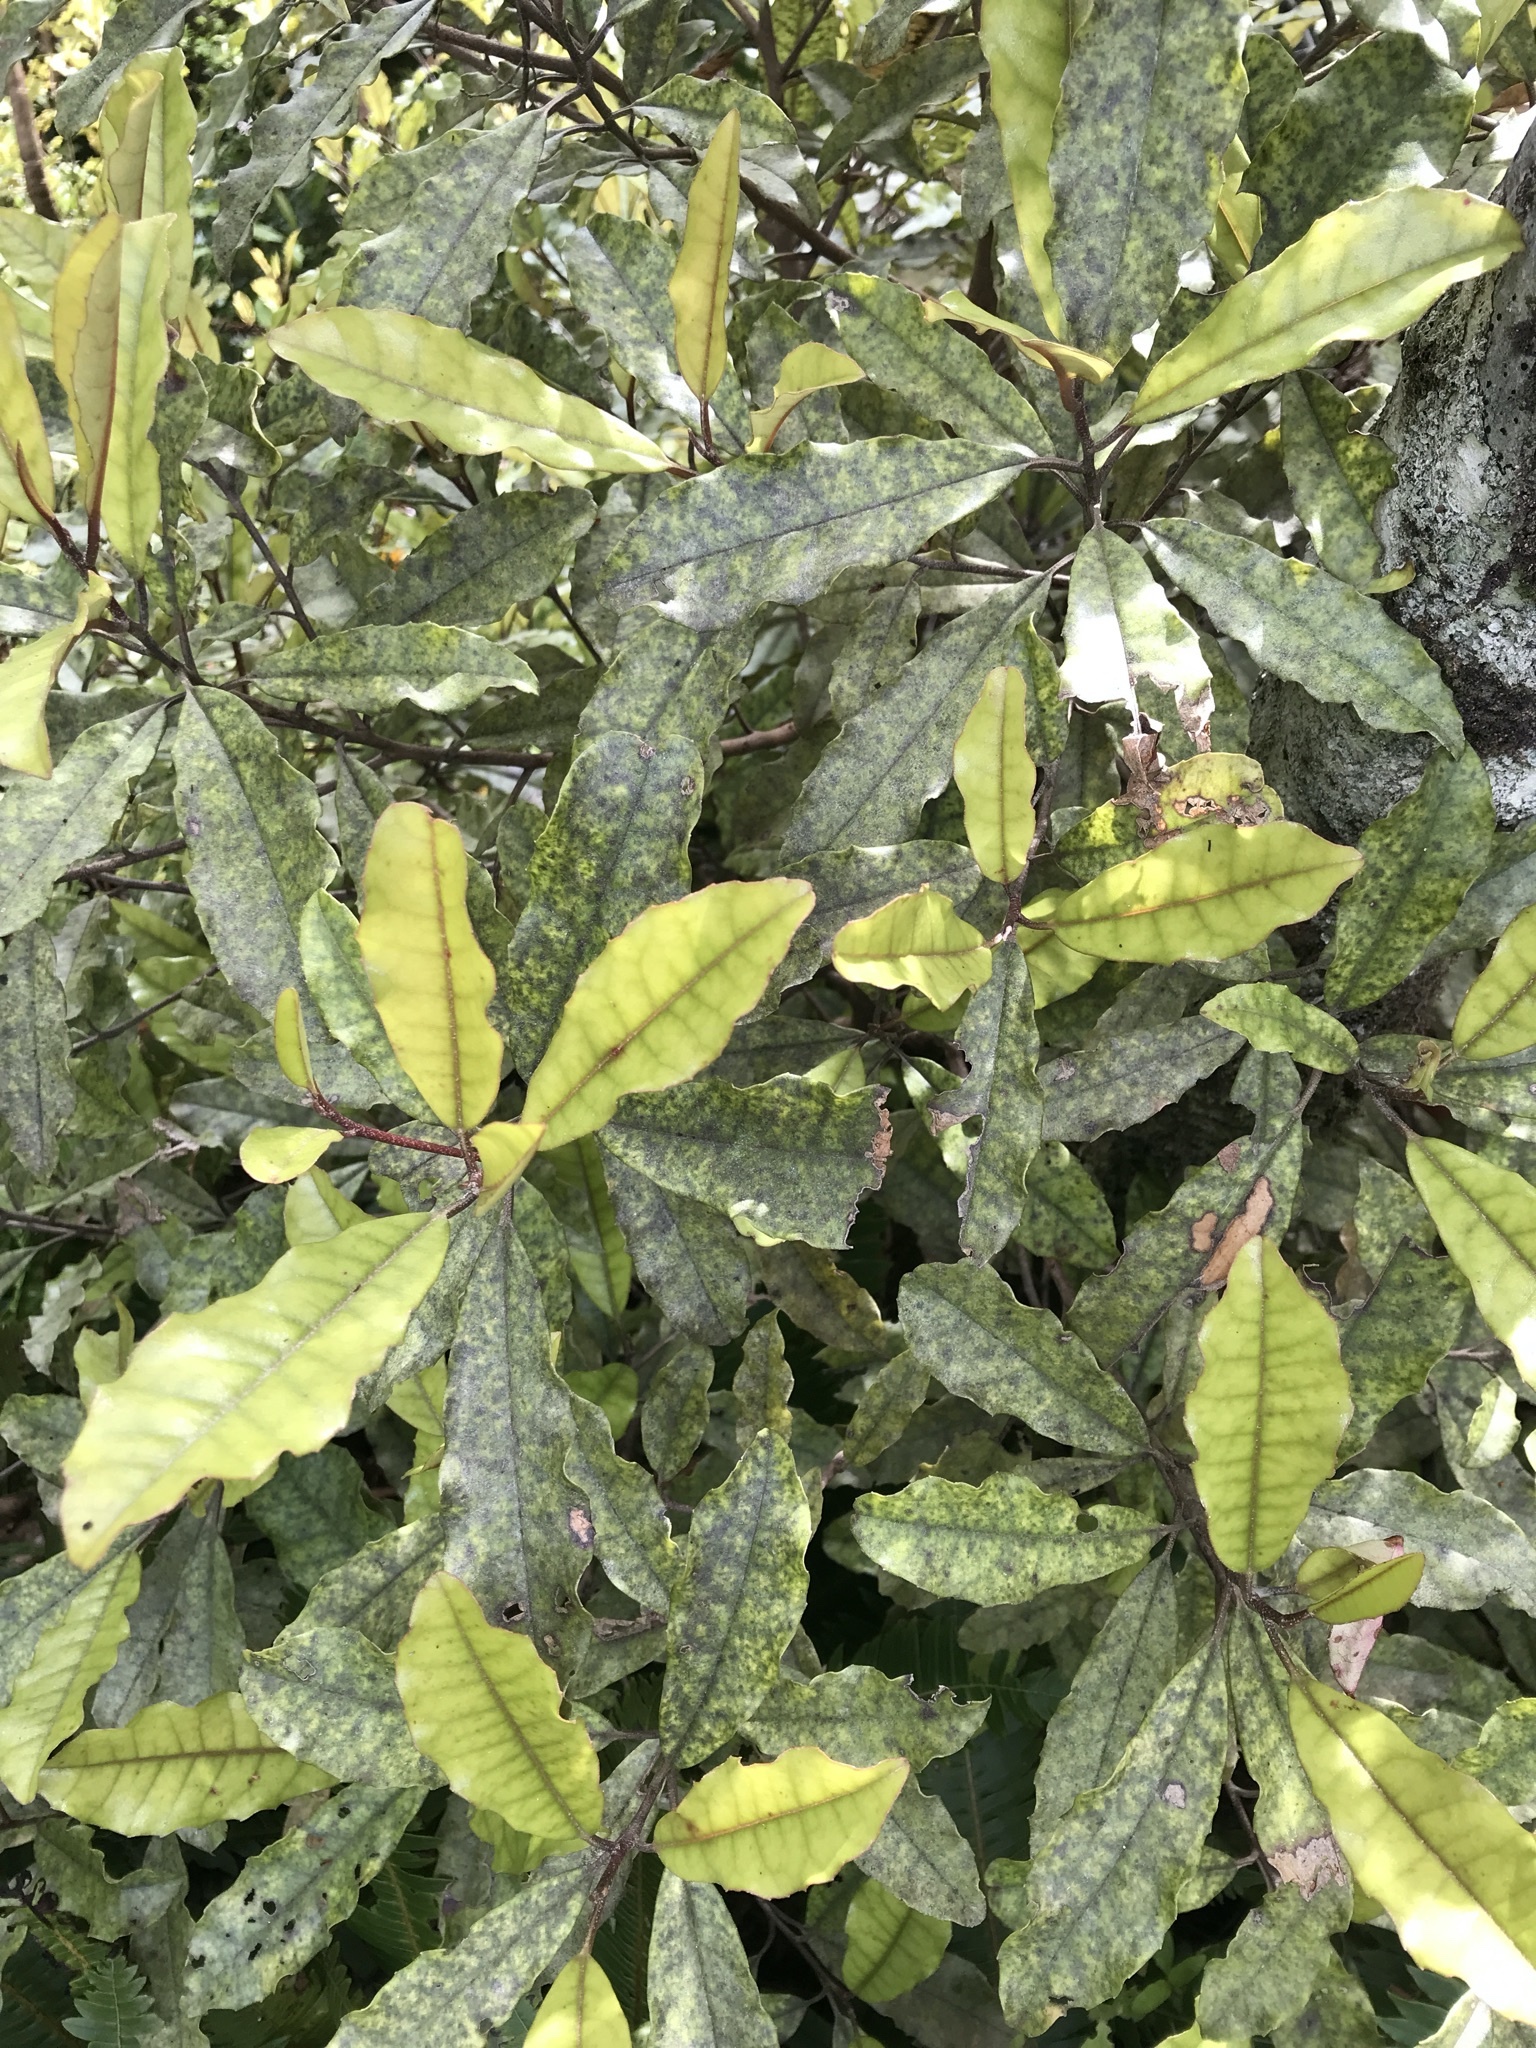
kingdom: Plantae
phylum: Tracheophyta
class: Magnoliopsida
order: Paracryphiales
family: Paracryphiaceae
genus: Quintinia
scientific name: Quintinia serrata
